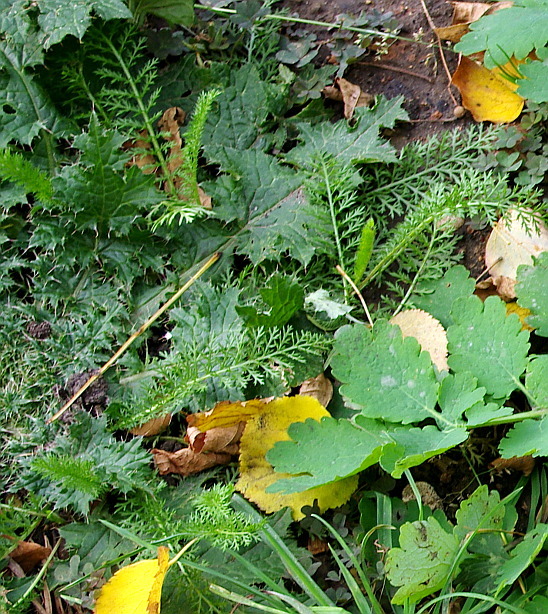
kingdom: Plantae
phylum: Tracheophyta
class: Magnoliopsida
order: Asterales
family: Asteraceae
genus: Achillea
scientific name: Achillea millefolium
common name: Yarrow
